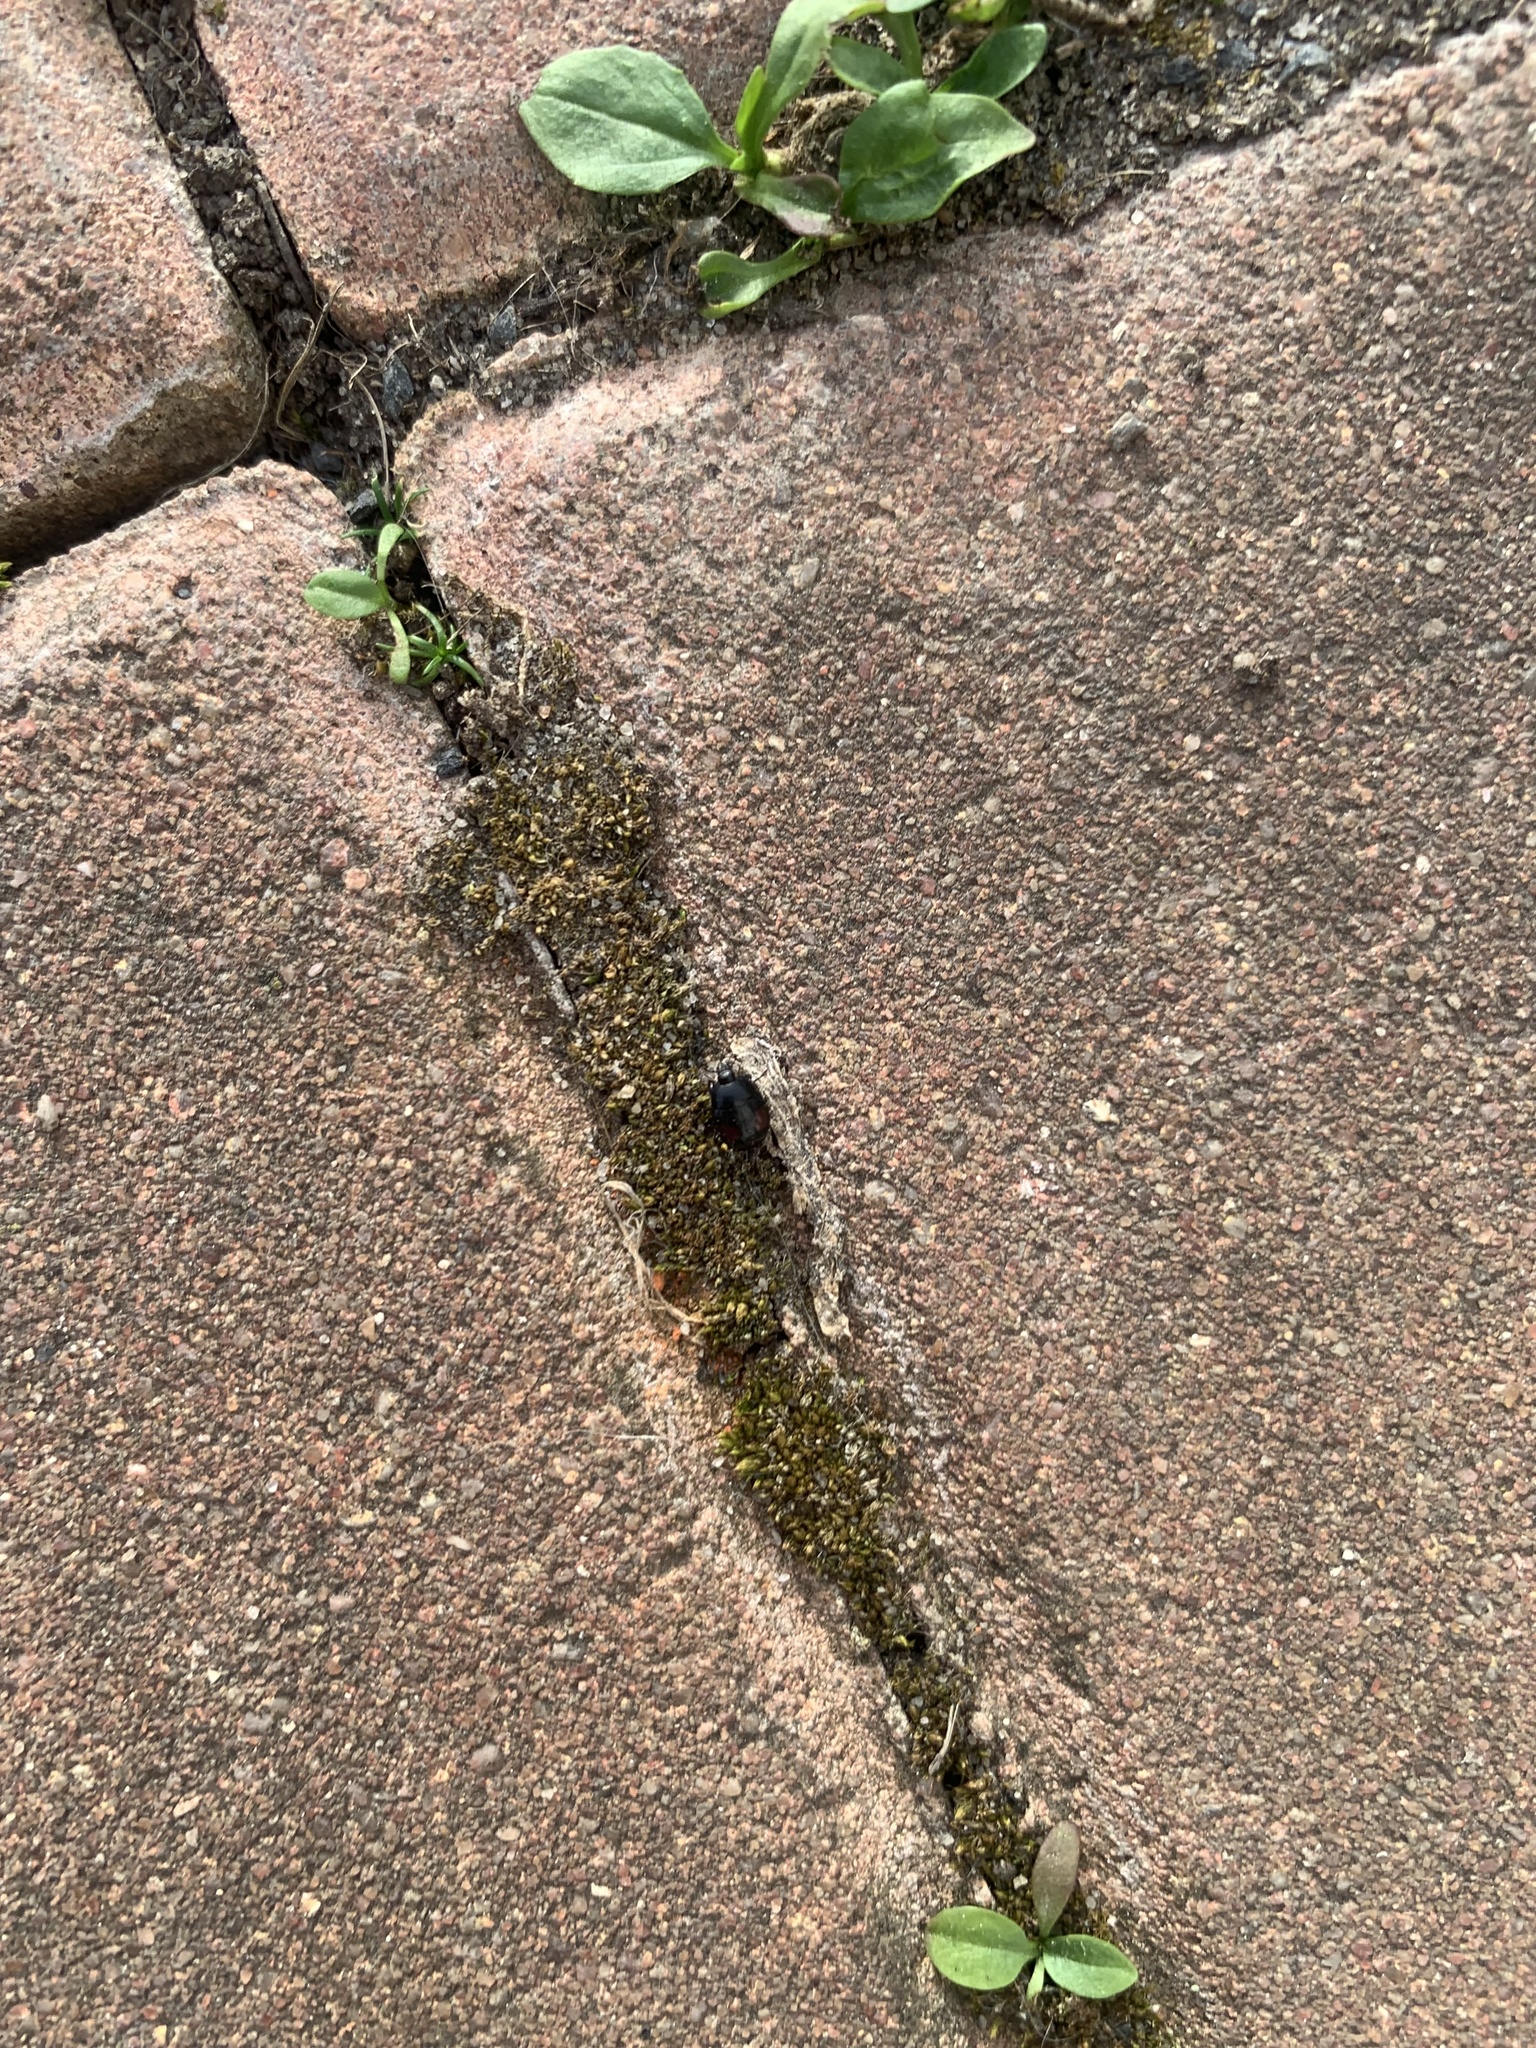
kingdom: Animalia
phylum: Arthropoda
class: Insecta
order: Coleoptera
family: Histeridae
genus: Margarinotus
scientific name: Margarinotus purpurascens
